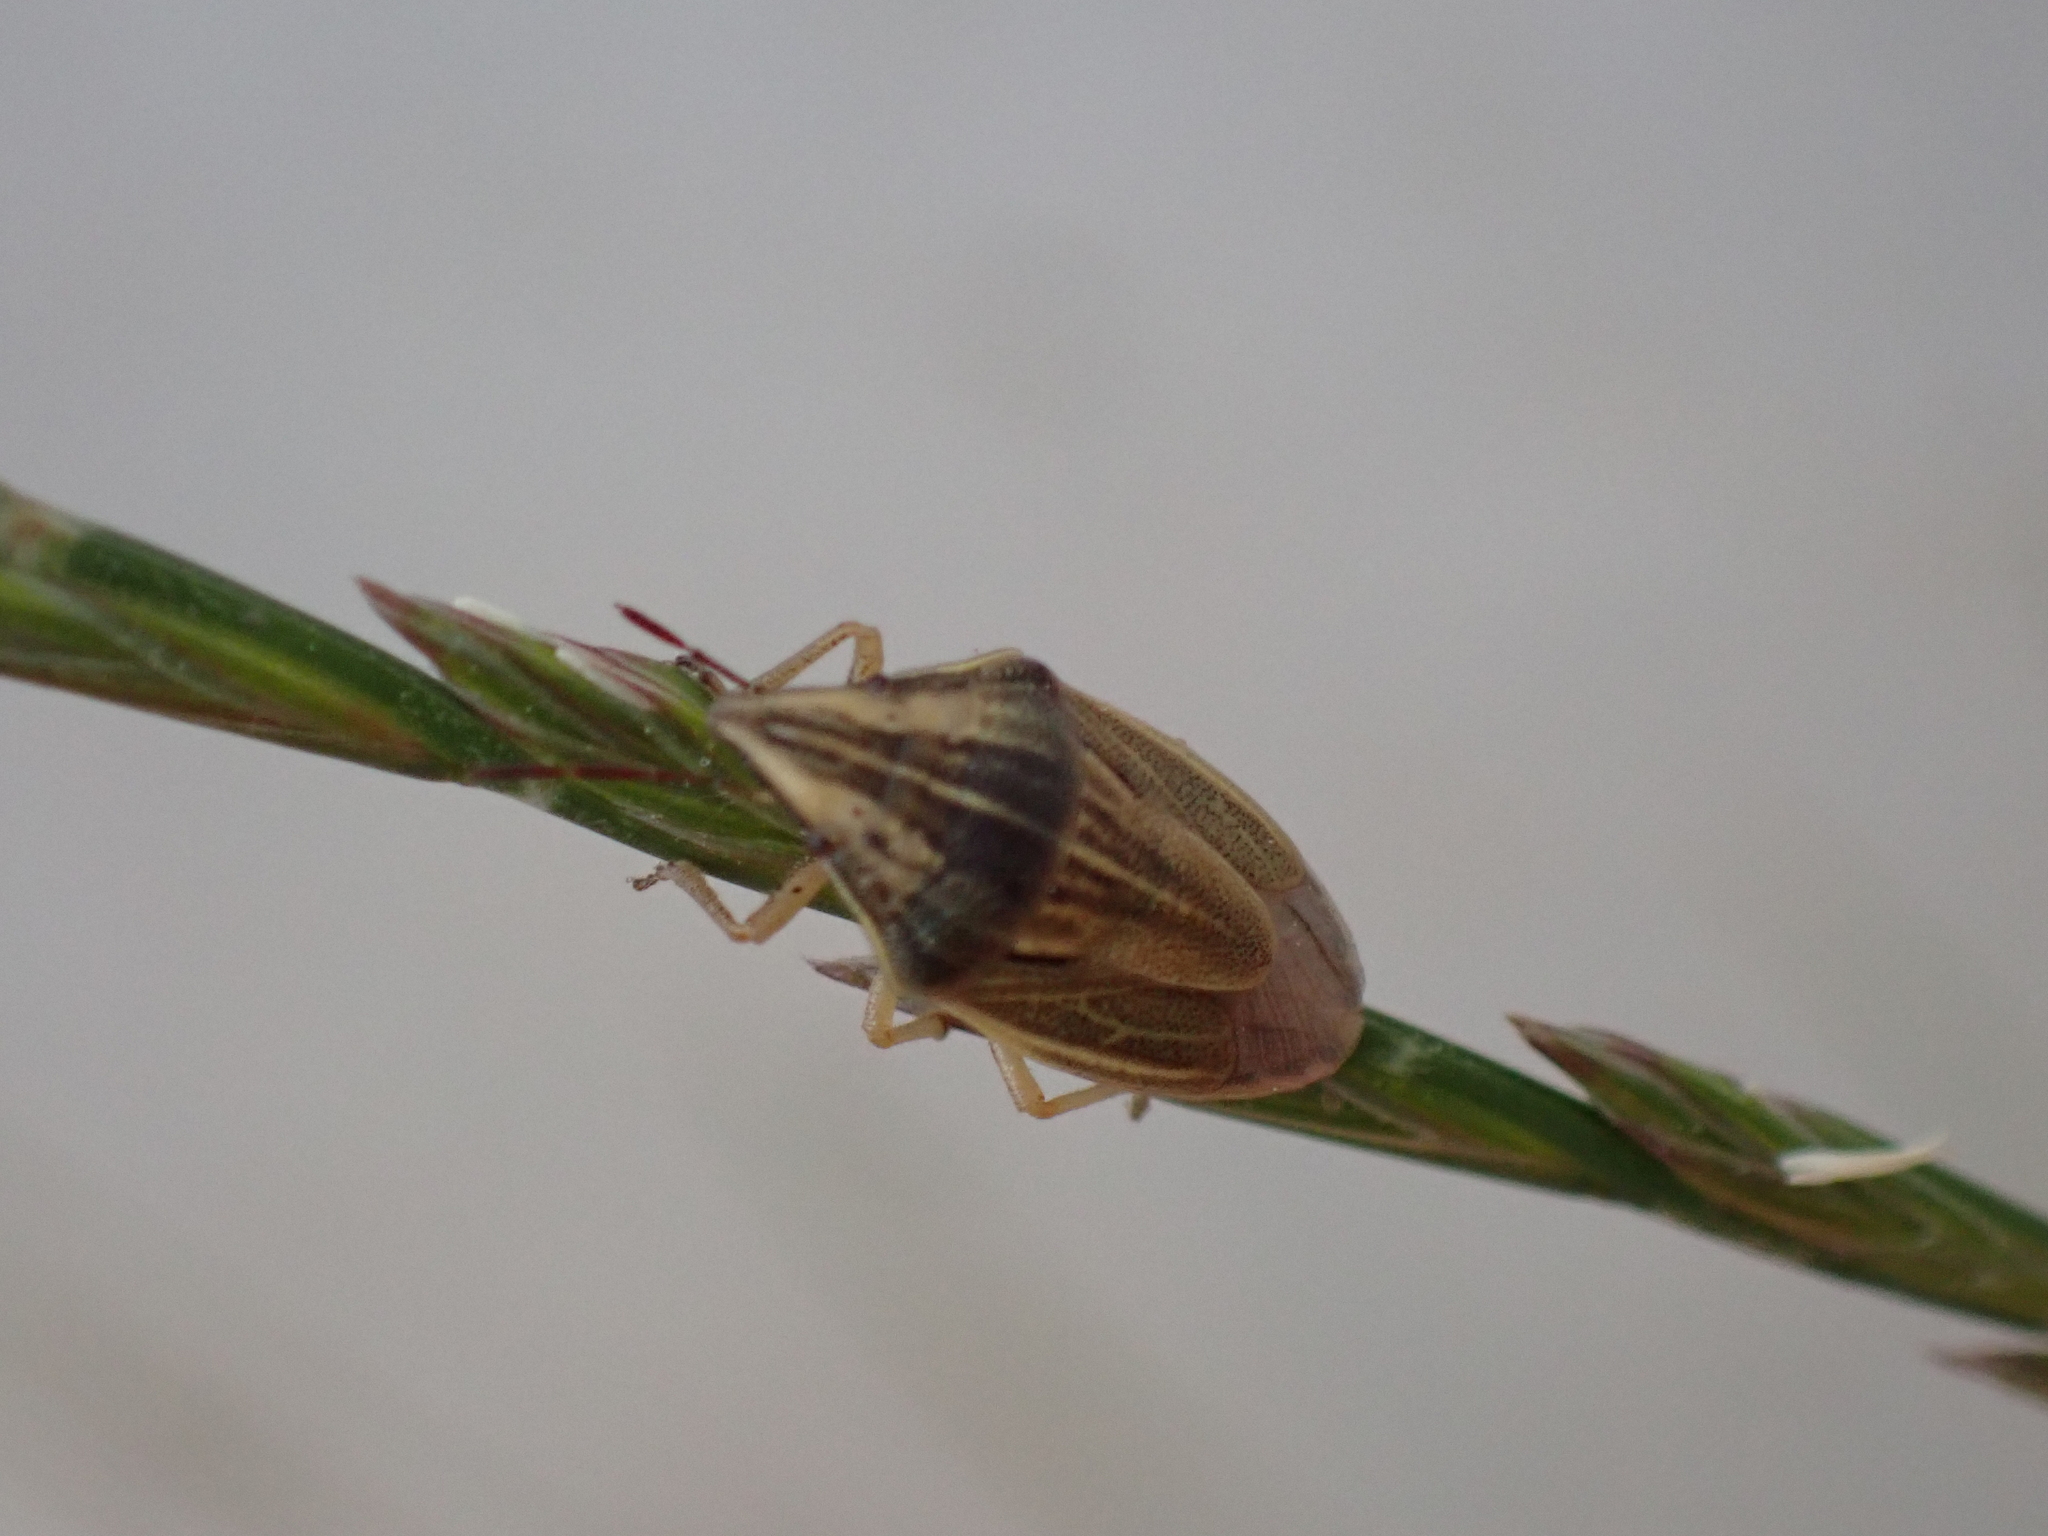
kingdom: Animalia
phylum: Arthropoda
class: Insecta
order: Hemiptera
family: Pentatomidae
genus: Aelia
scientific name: Aelia acuminata
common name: Bishop's mitre
